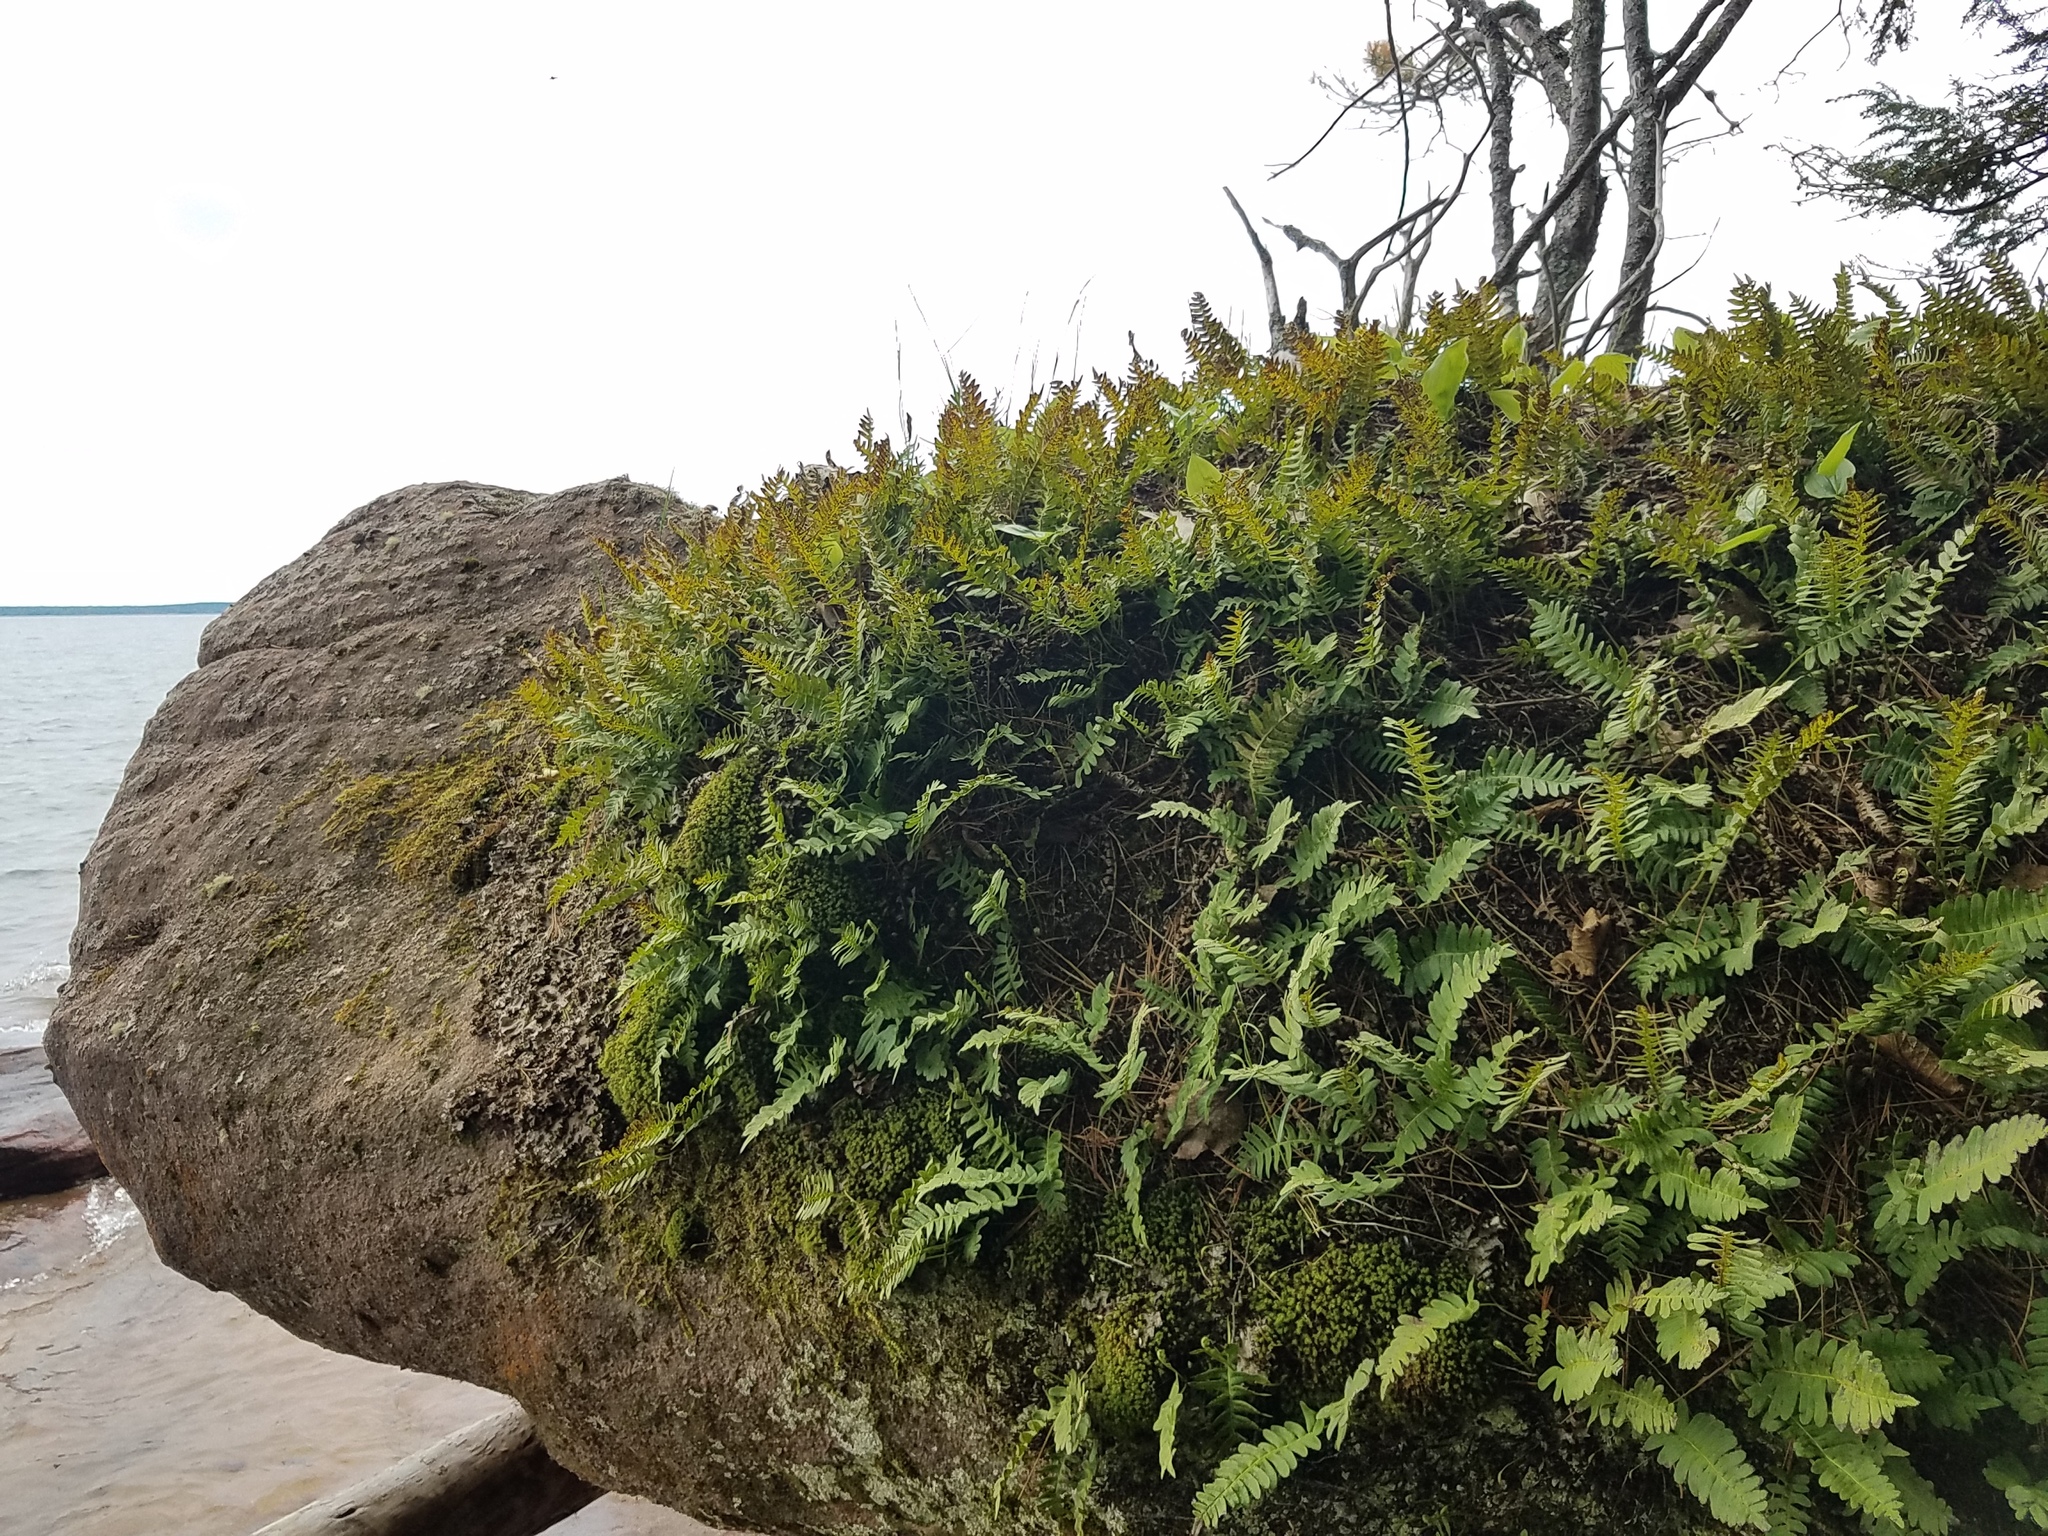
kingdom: Plantae
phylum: Tracheophyta
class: Polypodiopsida
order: Polypodiales
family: Polypodiaceae
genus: Polypodium
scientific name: Polypodium virginianum
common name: American wall fern
